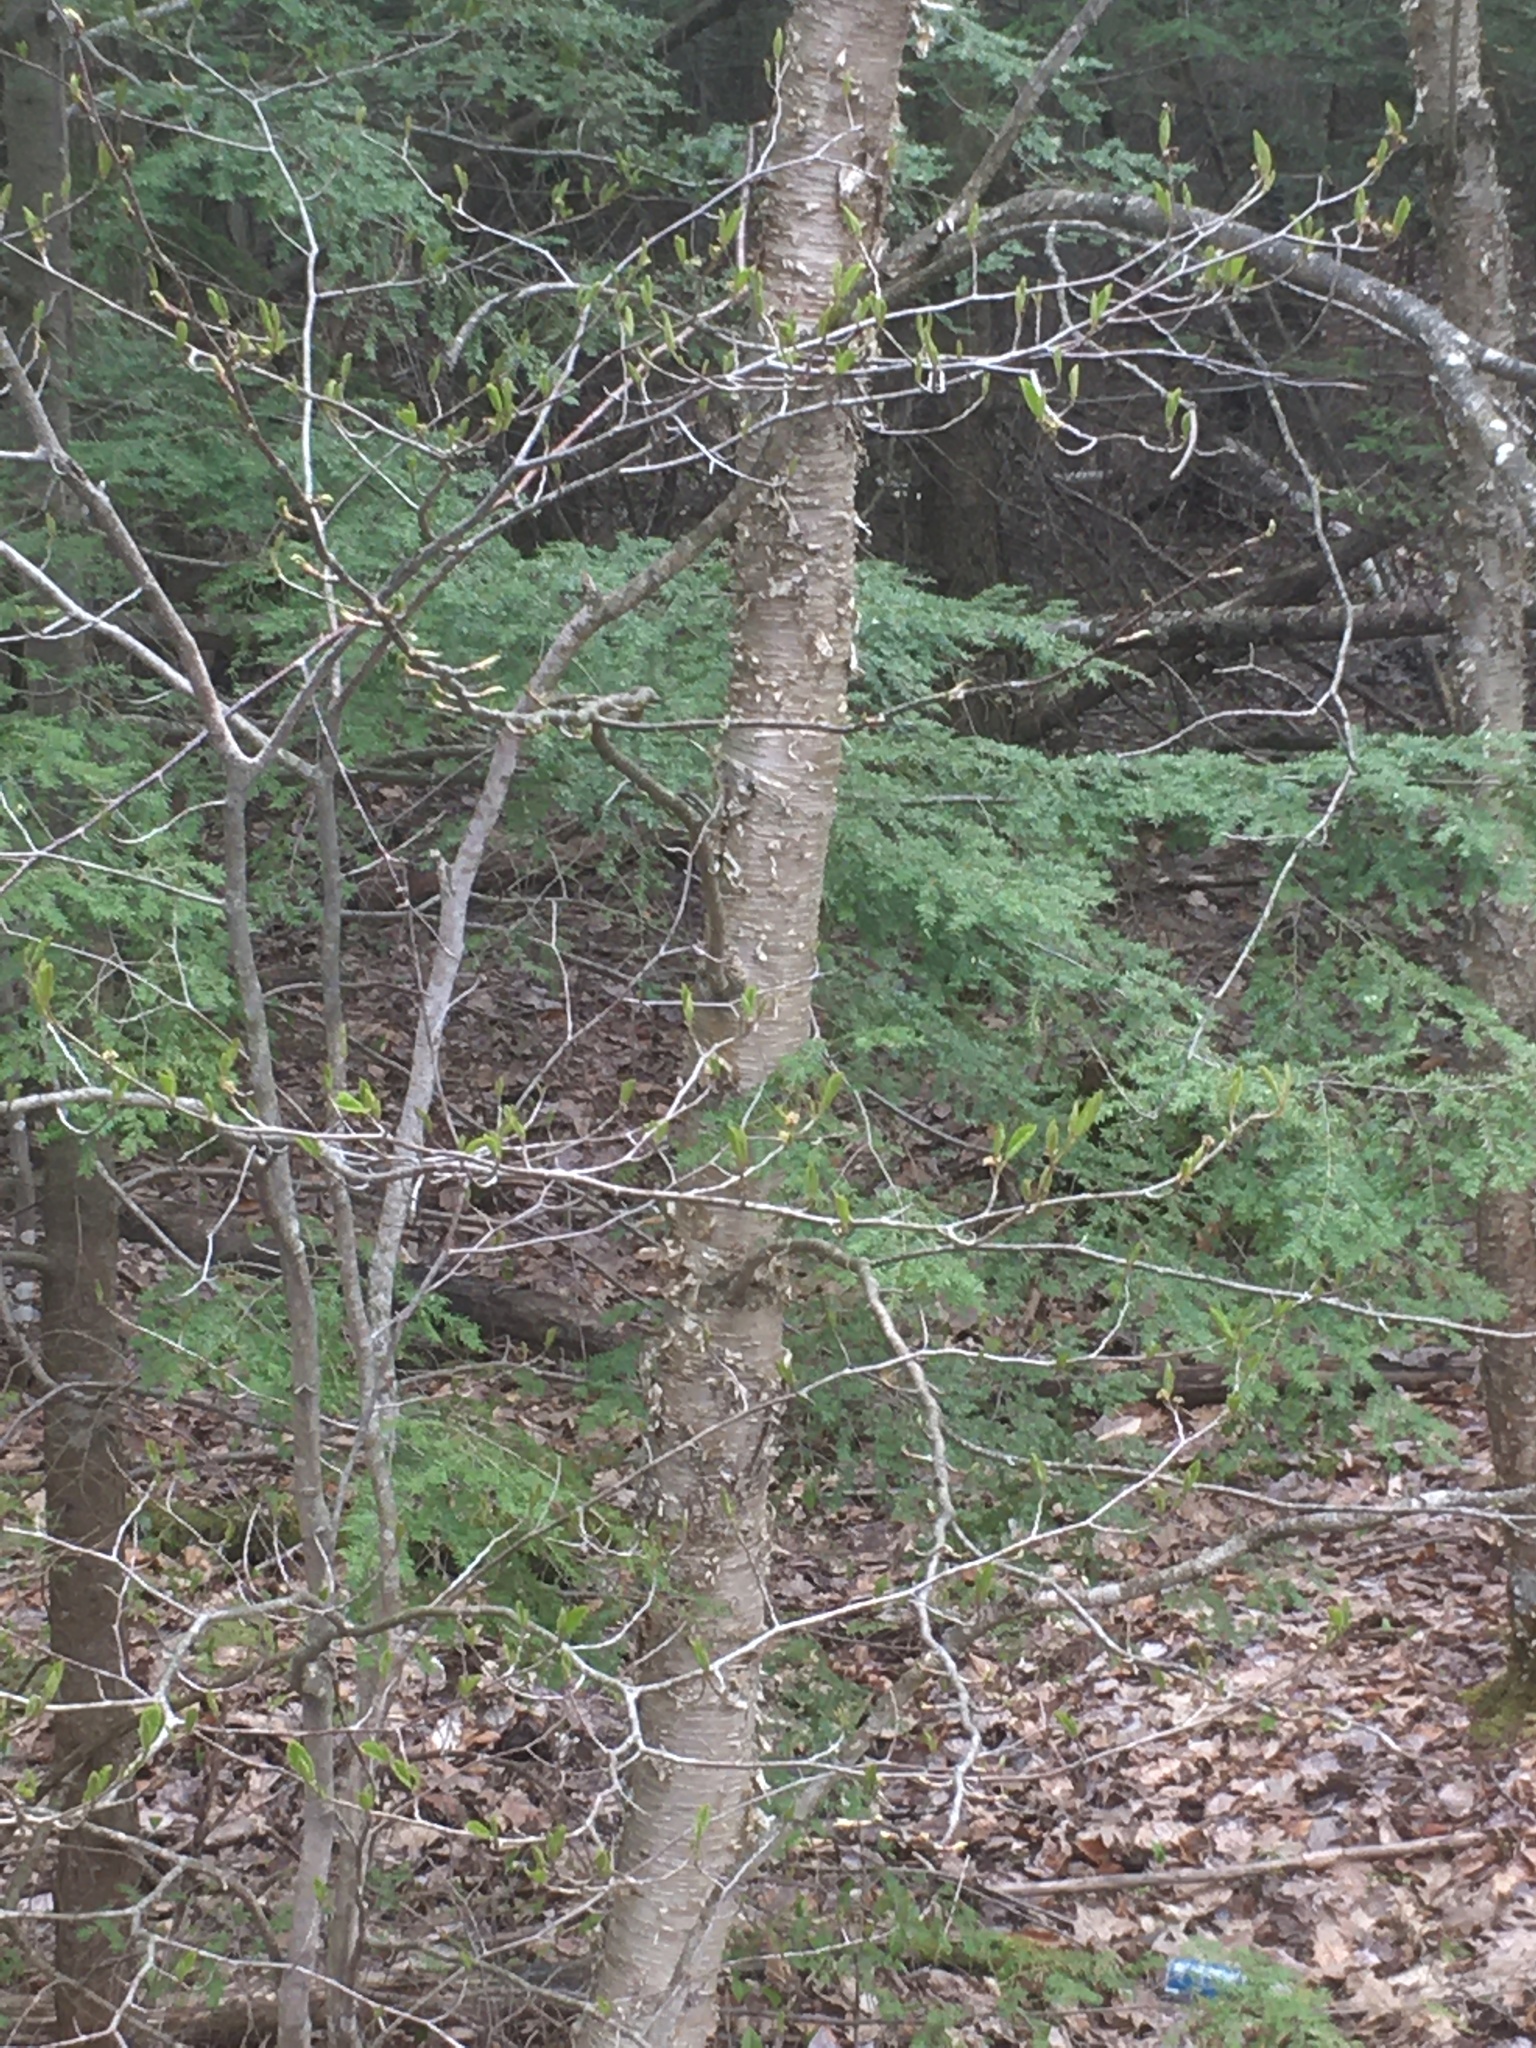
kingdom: Plantae
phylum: Tracheophyta
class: Magnoliopsida
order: Fagales
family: Betulaceae
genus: Betula
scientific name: Betula alleghaniensis
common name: Yellow birch
